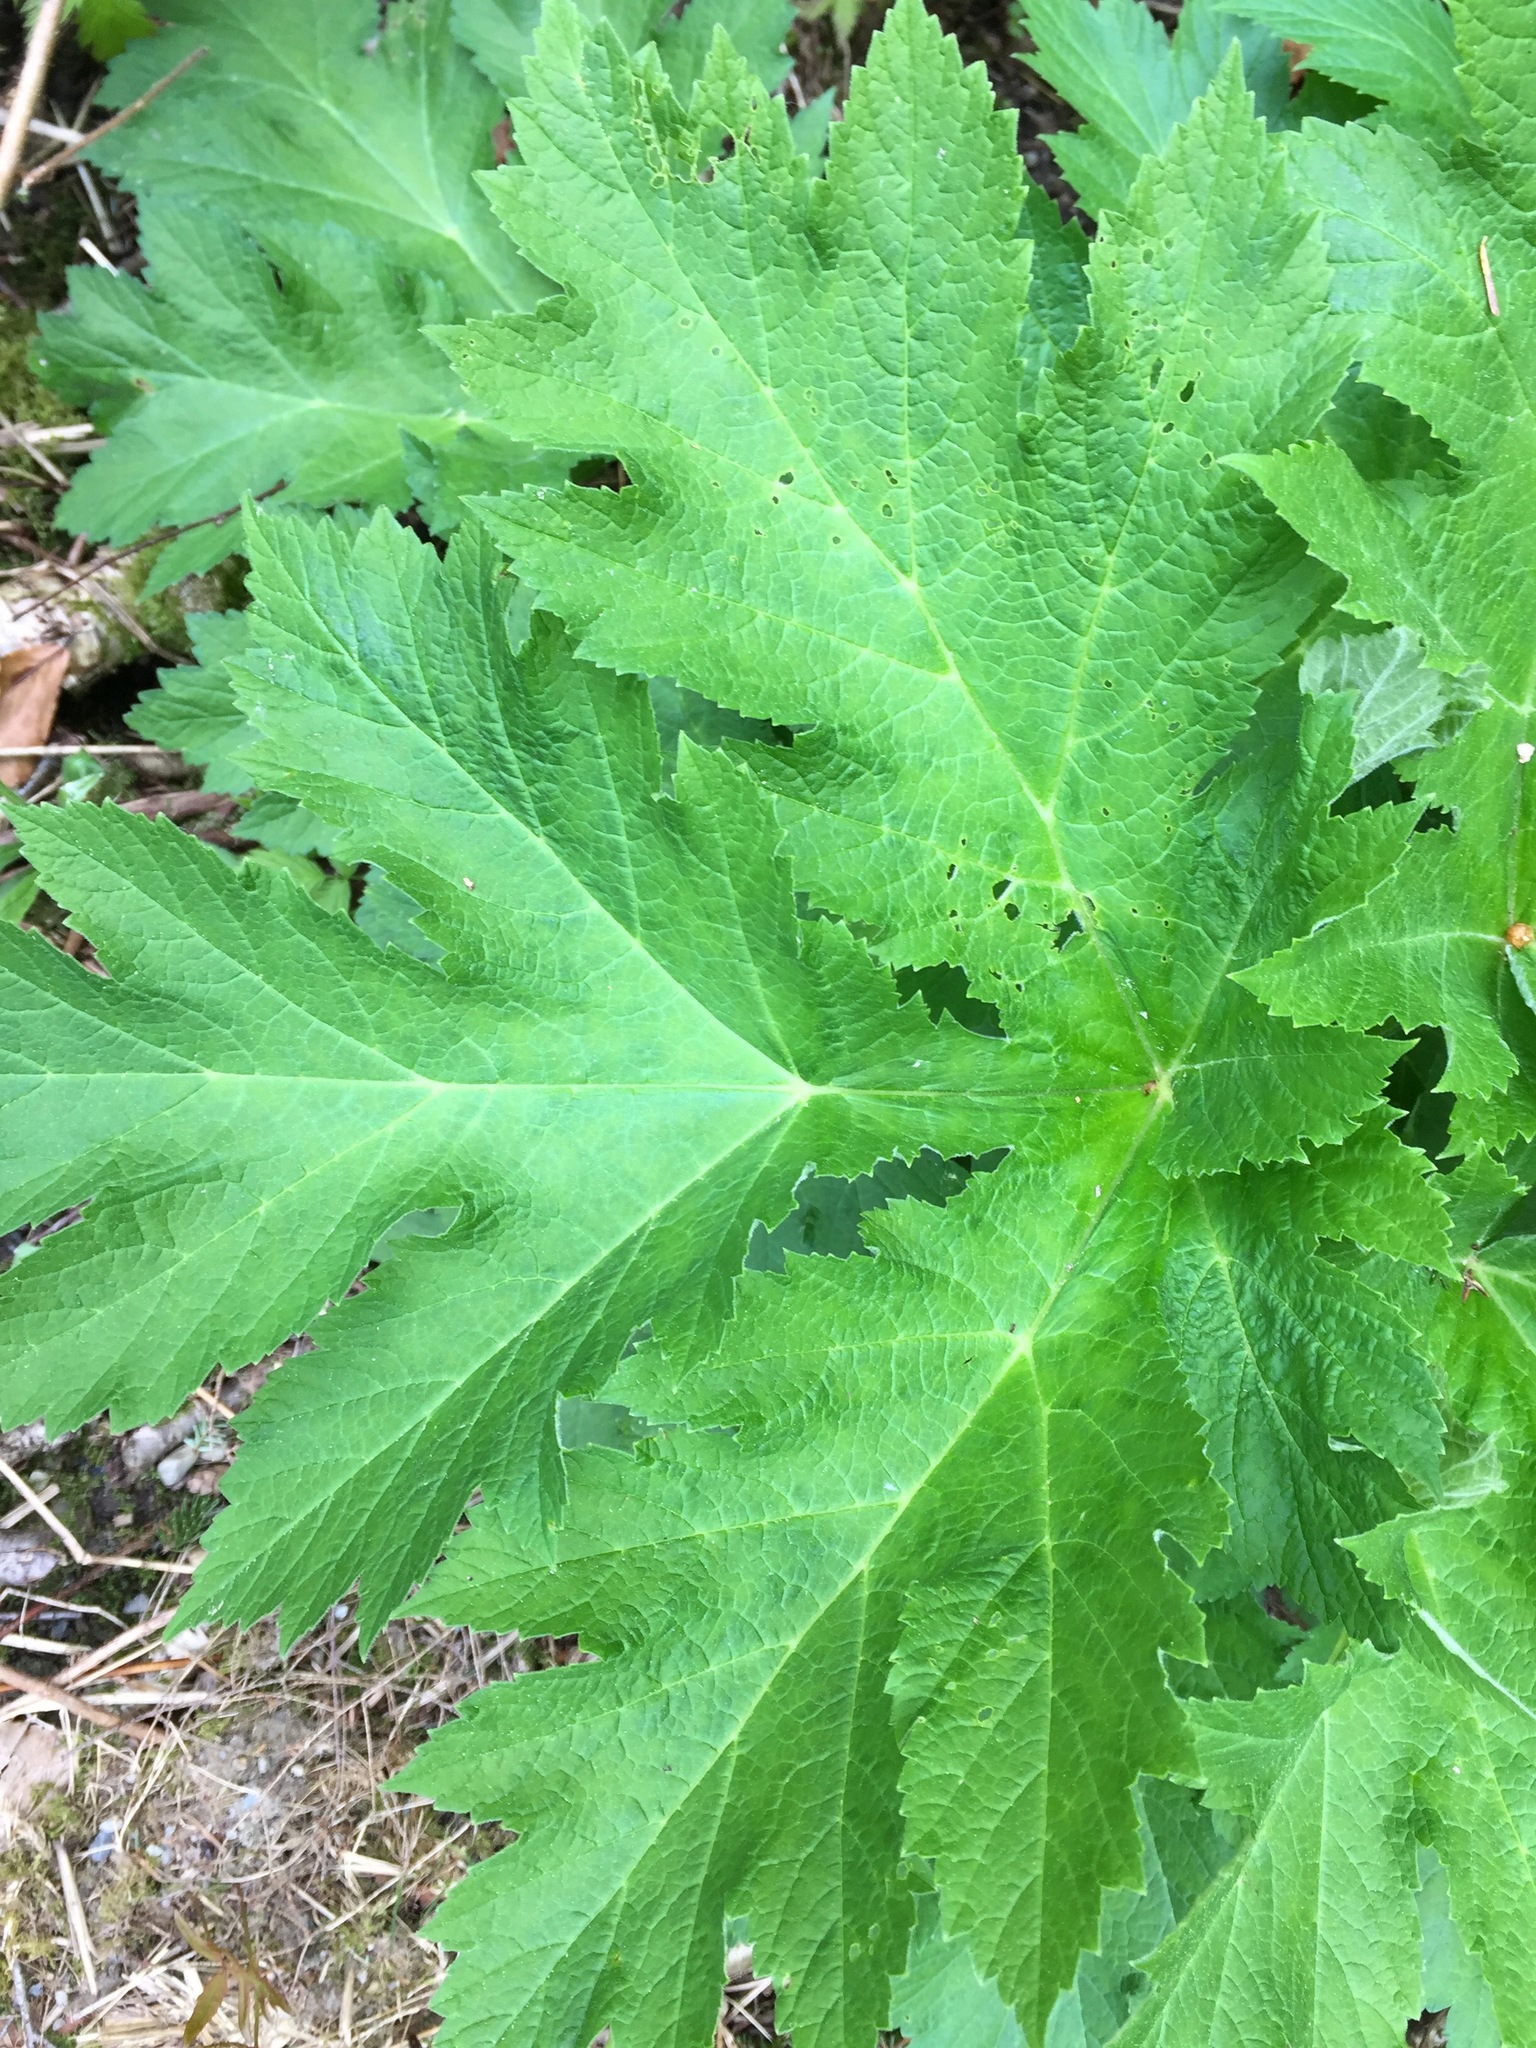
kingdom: Plantae
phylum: Tracheophyta
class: Magnoliopsida
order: Apiales
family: Apiaceae
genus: Heracleum
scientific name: Heracleum maximum
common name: American cow parsnip
